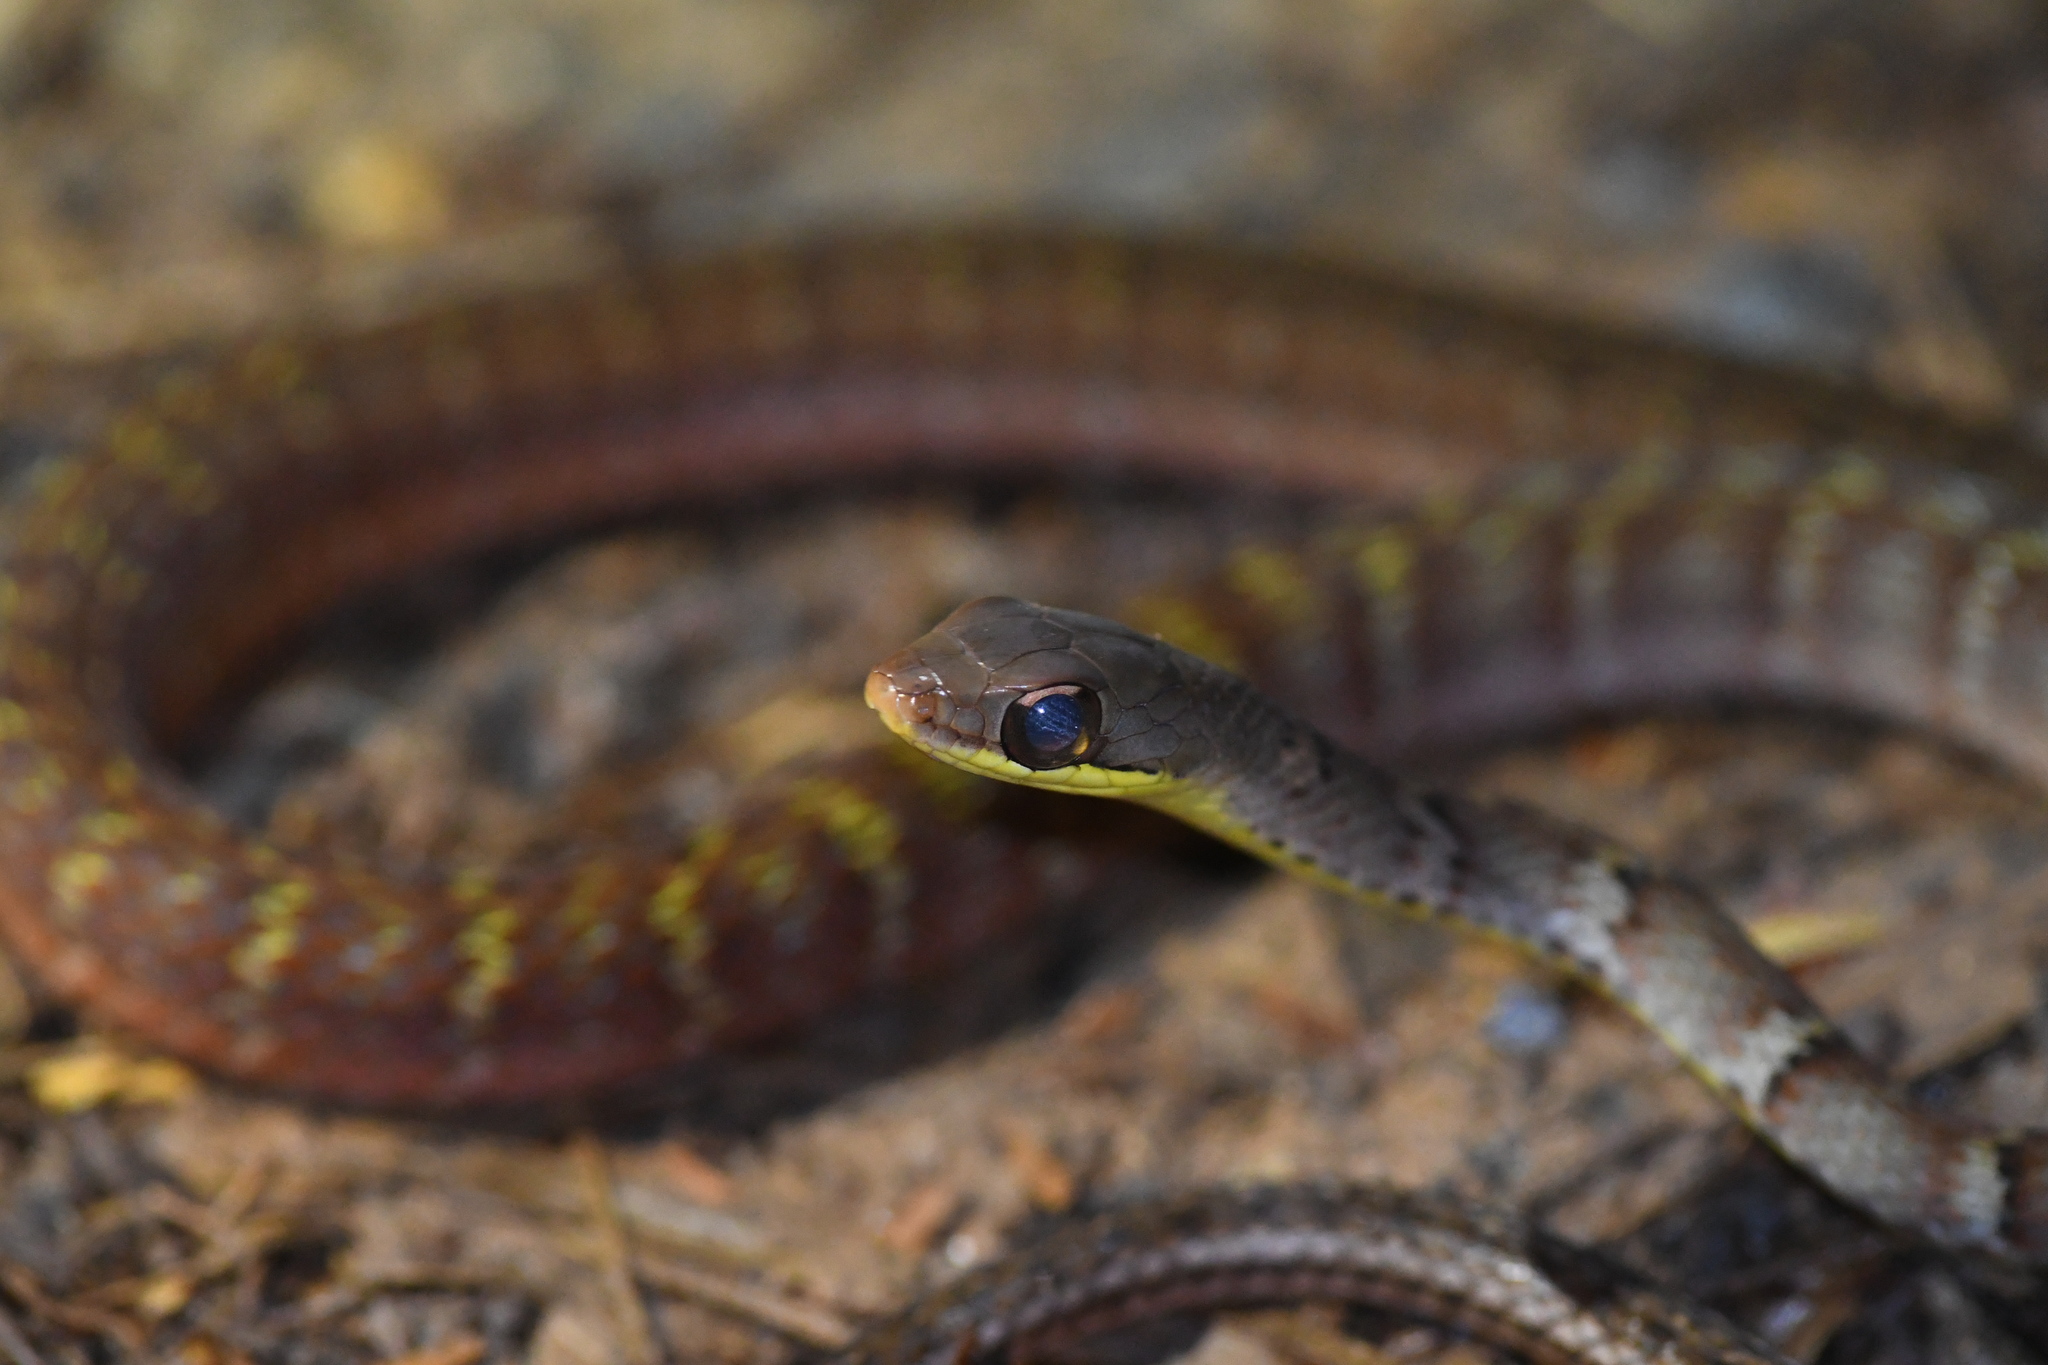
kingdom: Animalia
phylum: Chordata
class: Squamata
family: Colubridae
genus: Dendrophidion
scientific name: Dendrophidion percarinatum
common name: South american forest racer
